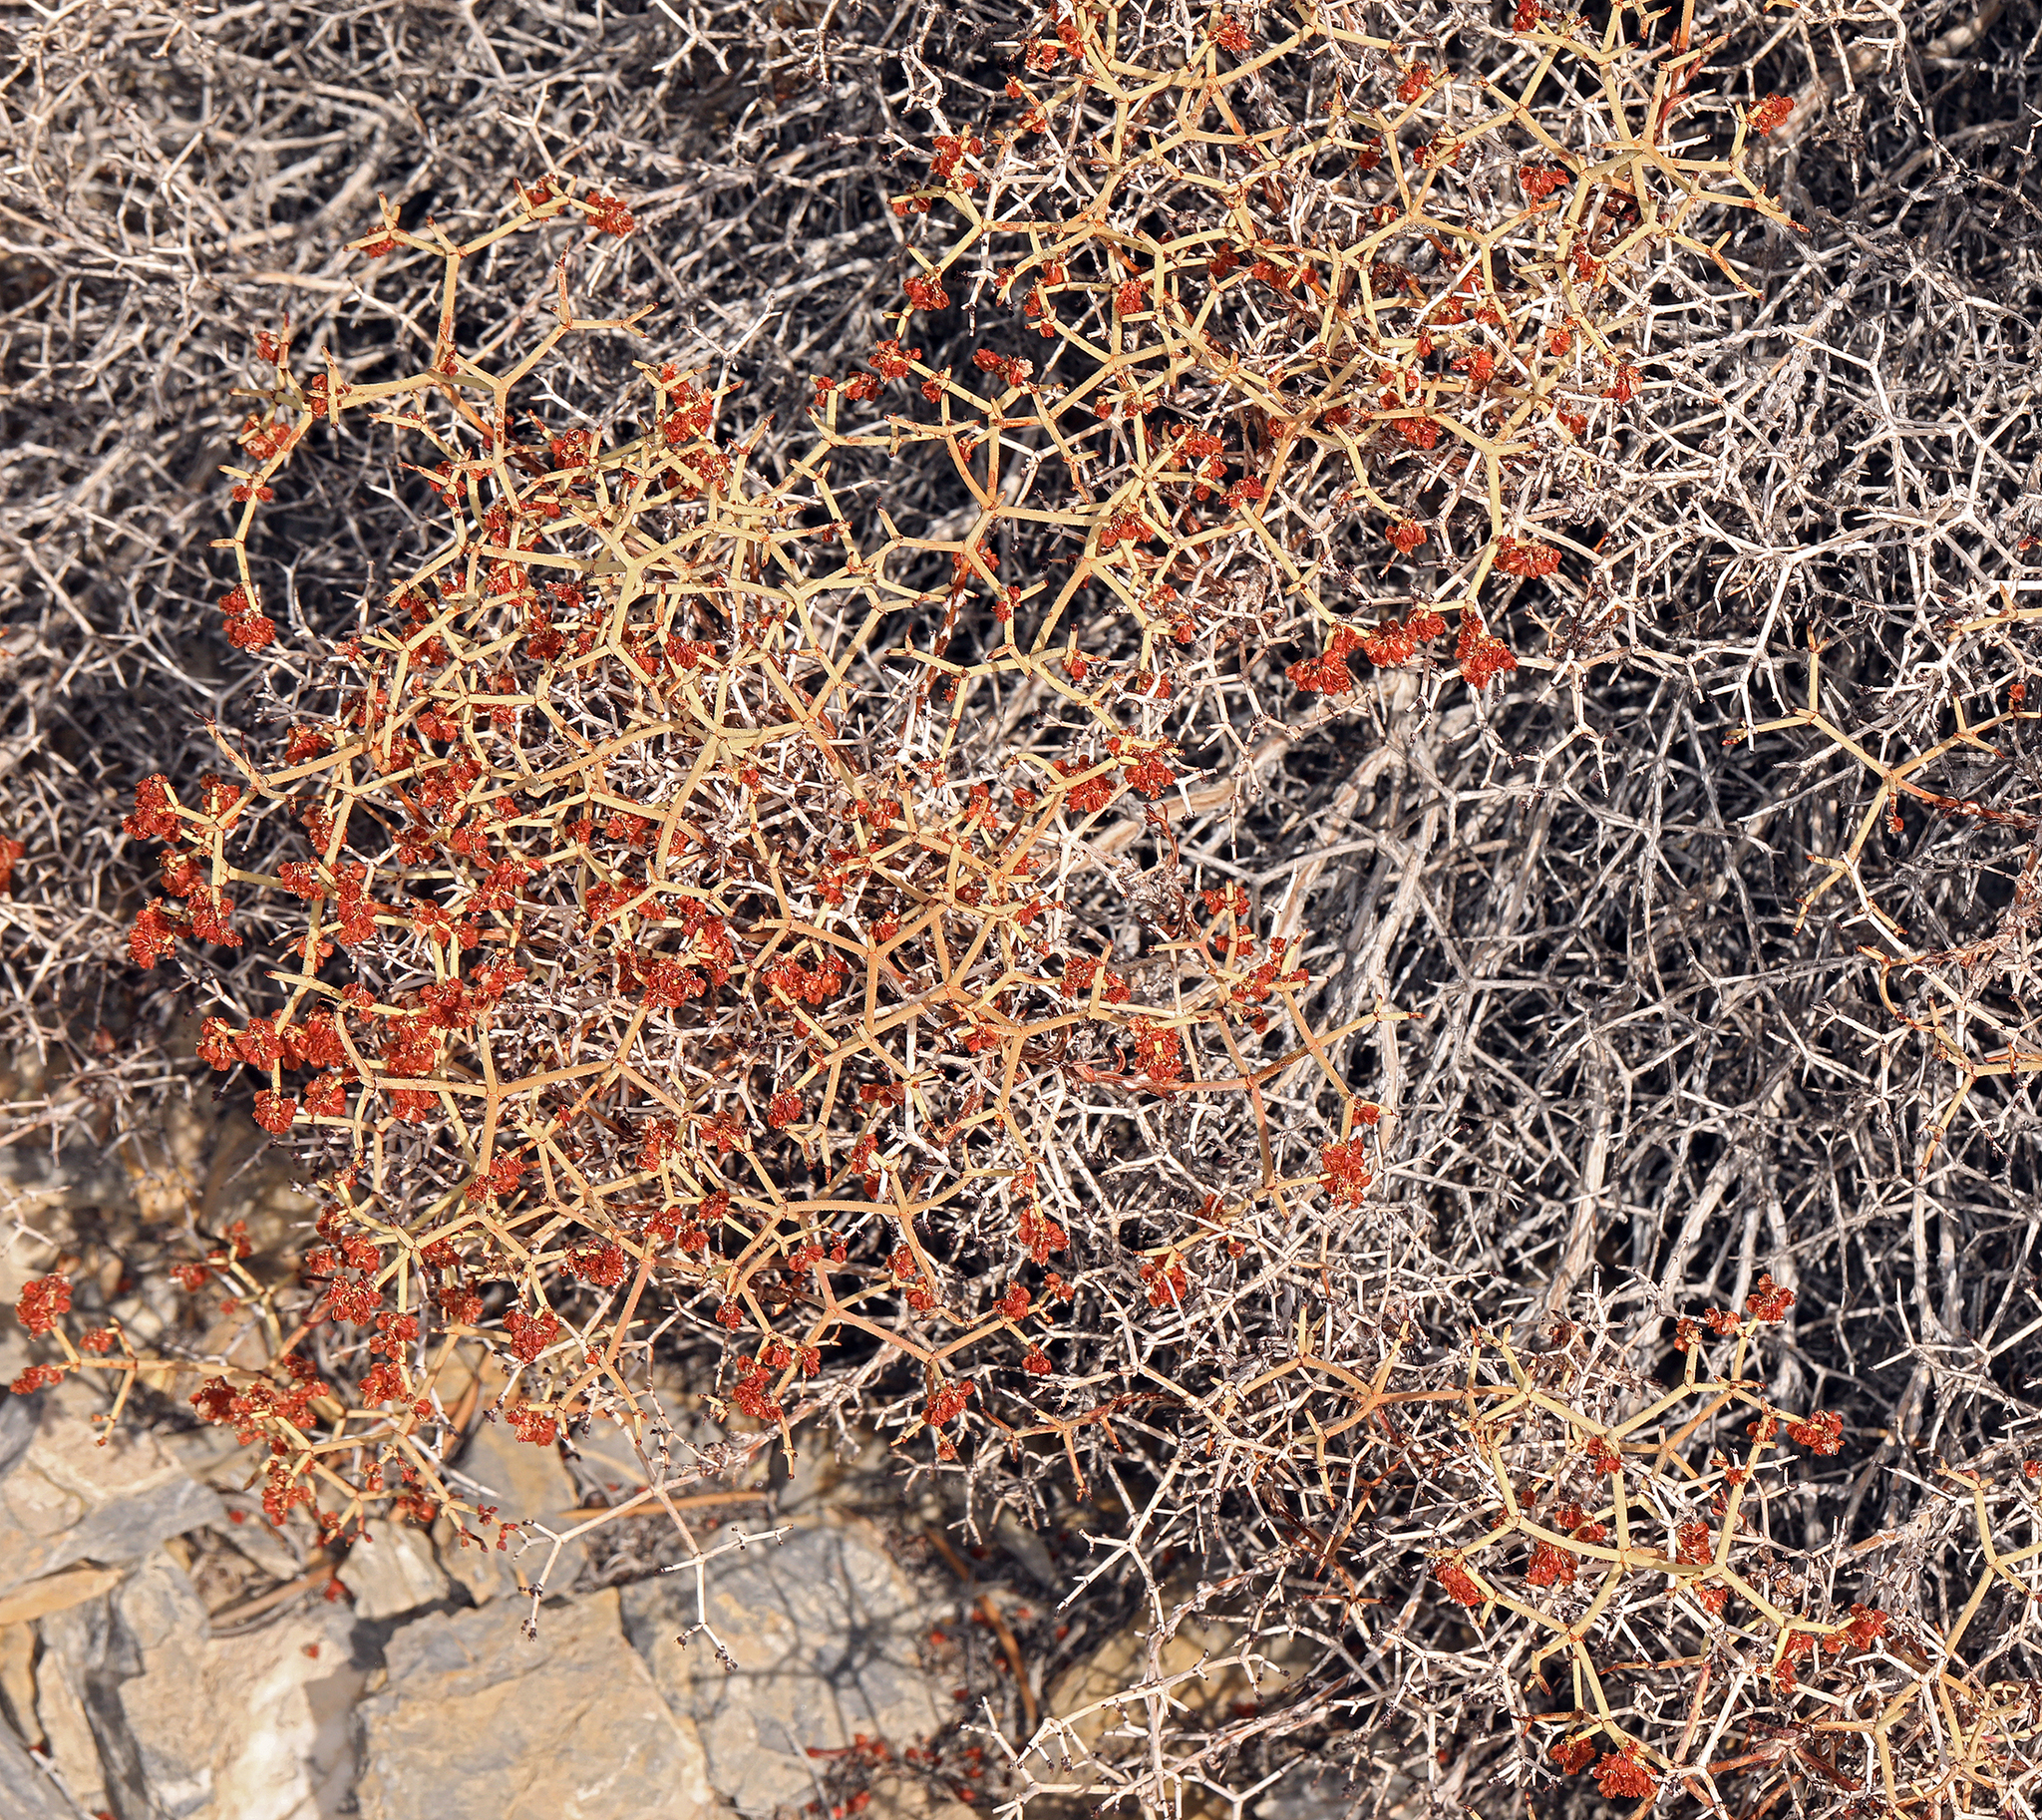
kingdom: Plantae
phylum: Tracheophyta
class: Magnoliopsida
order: Caryophyllales
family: Polygonaceae
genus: Eriogonum
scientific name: Eriogonum heermannii
